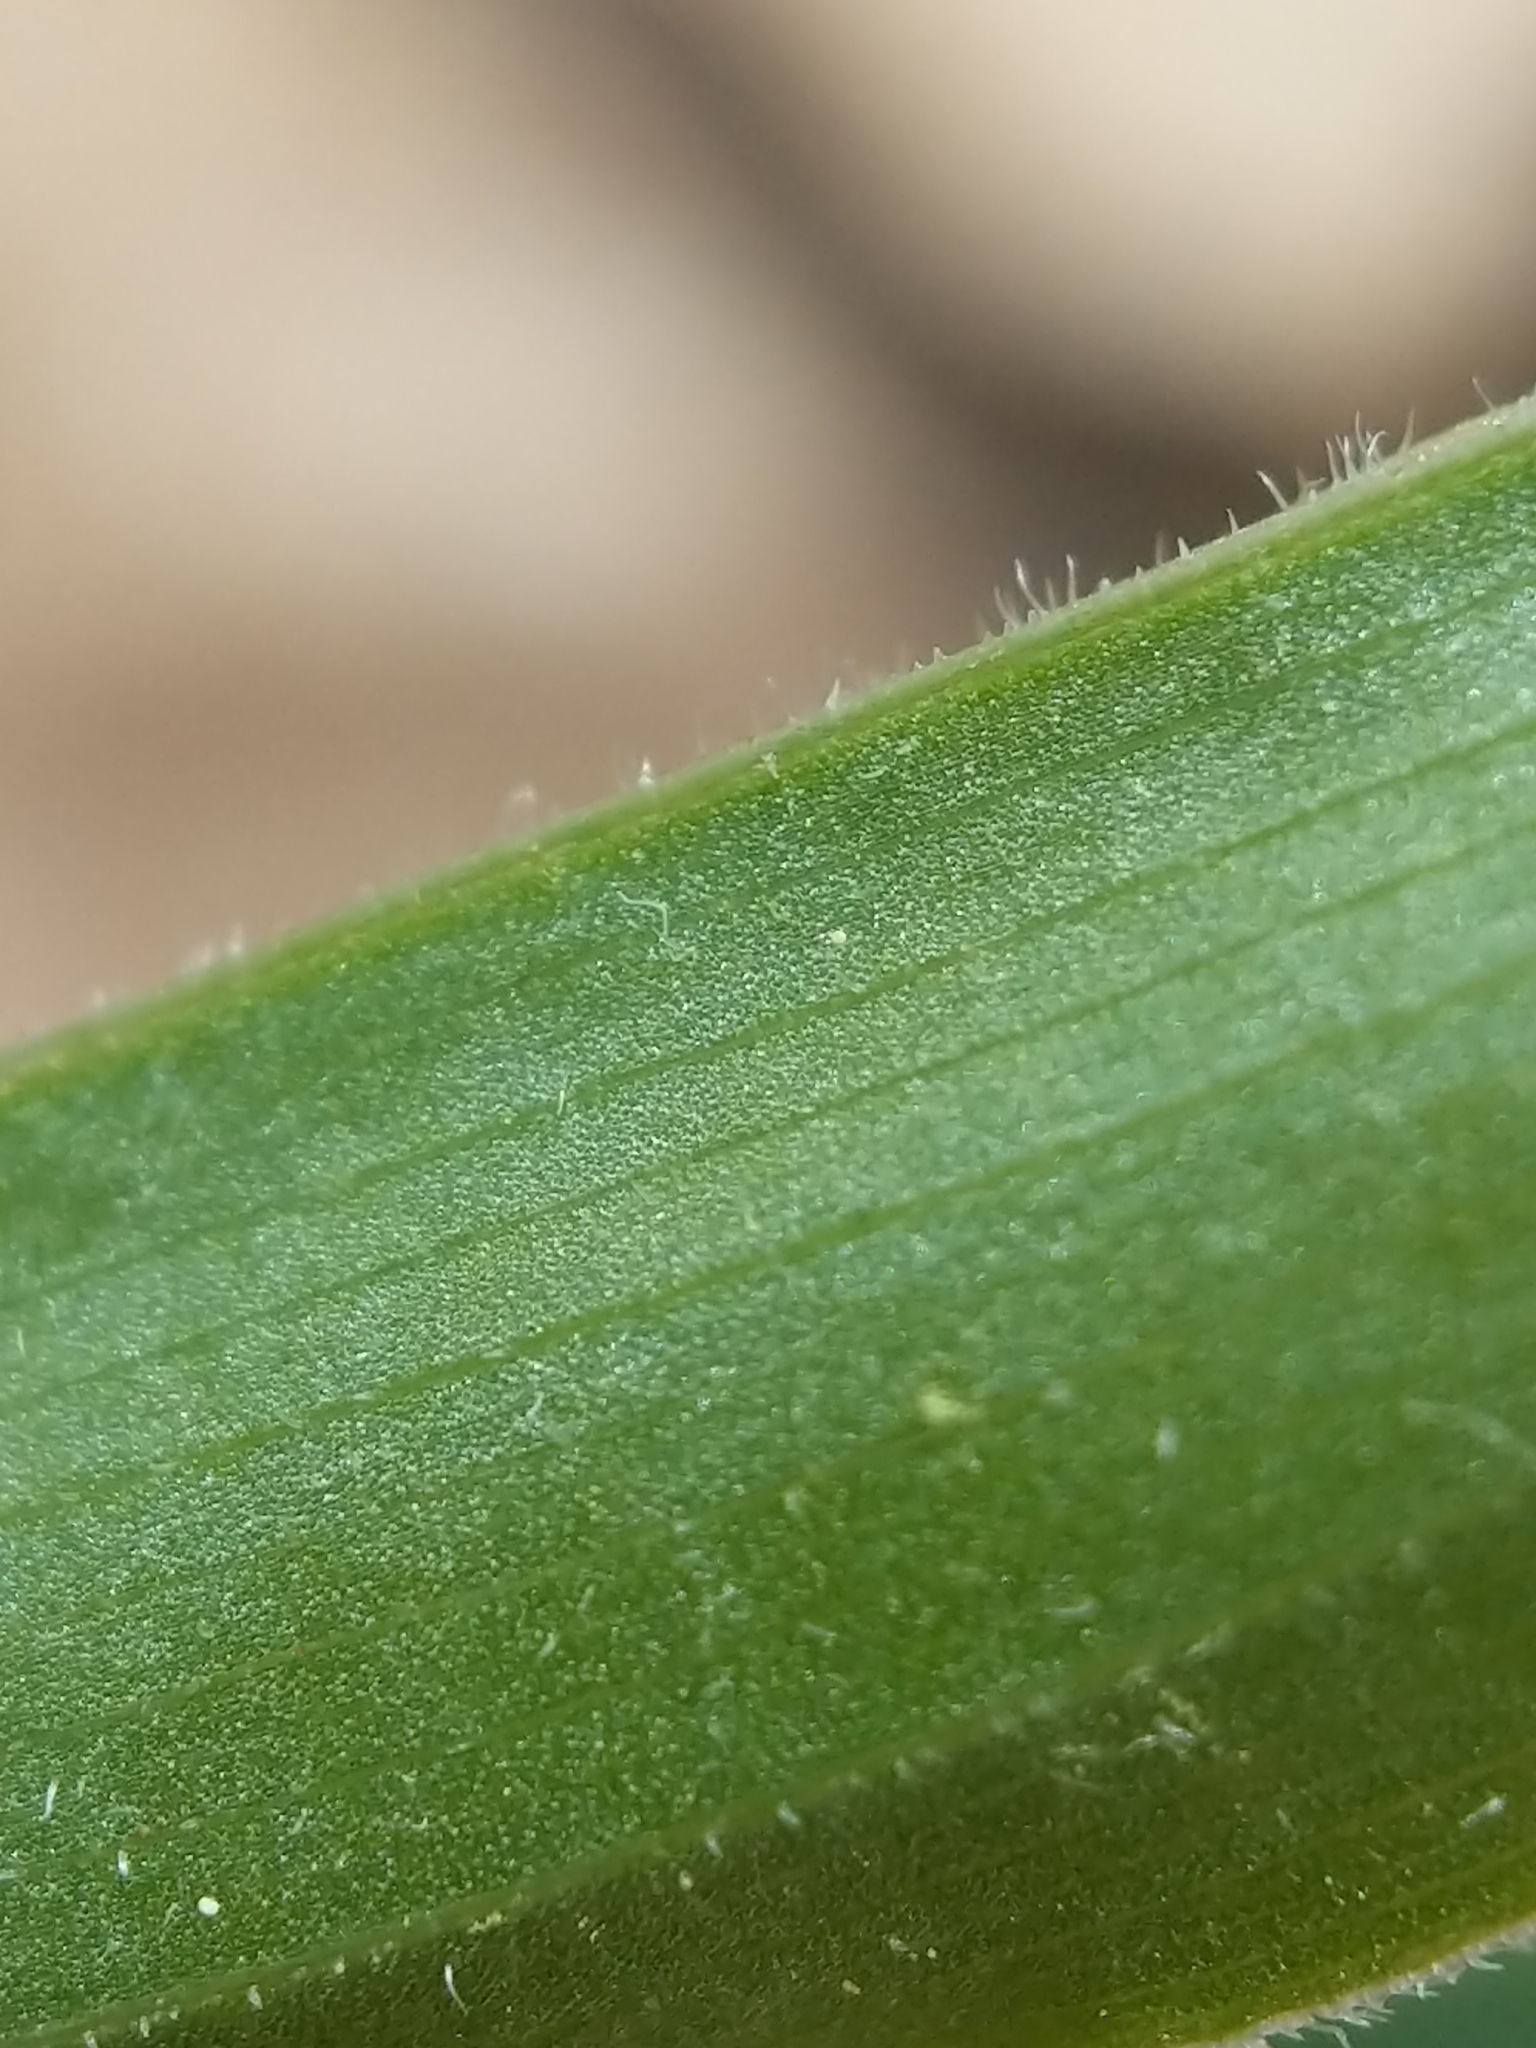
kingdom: Plantae
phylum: Tracheophyta
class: Liliopsida
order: Asparagales
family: Asparagaceae
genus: Maianthemum
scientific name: Maianthemum racemosum
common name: False spikenard
